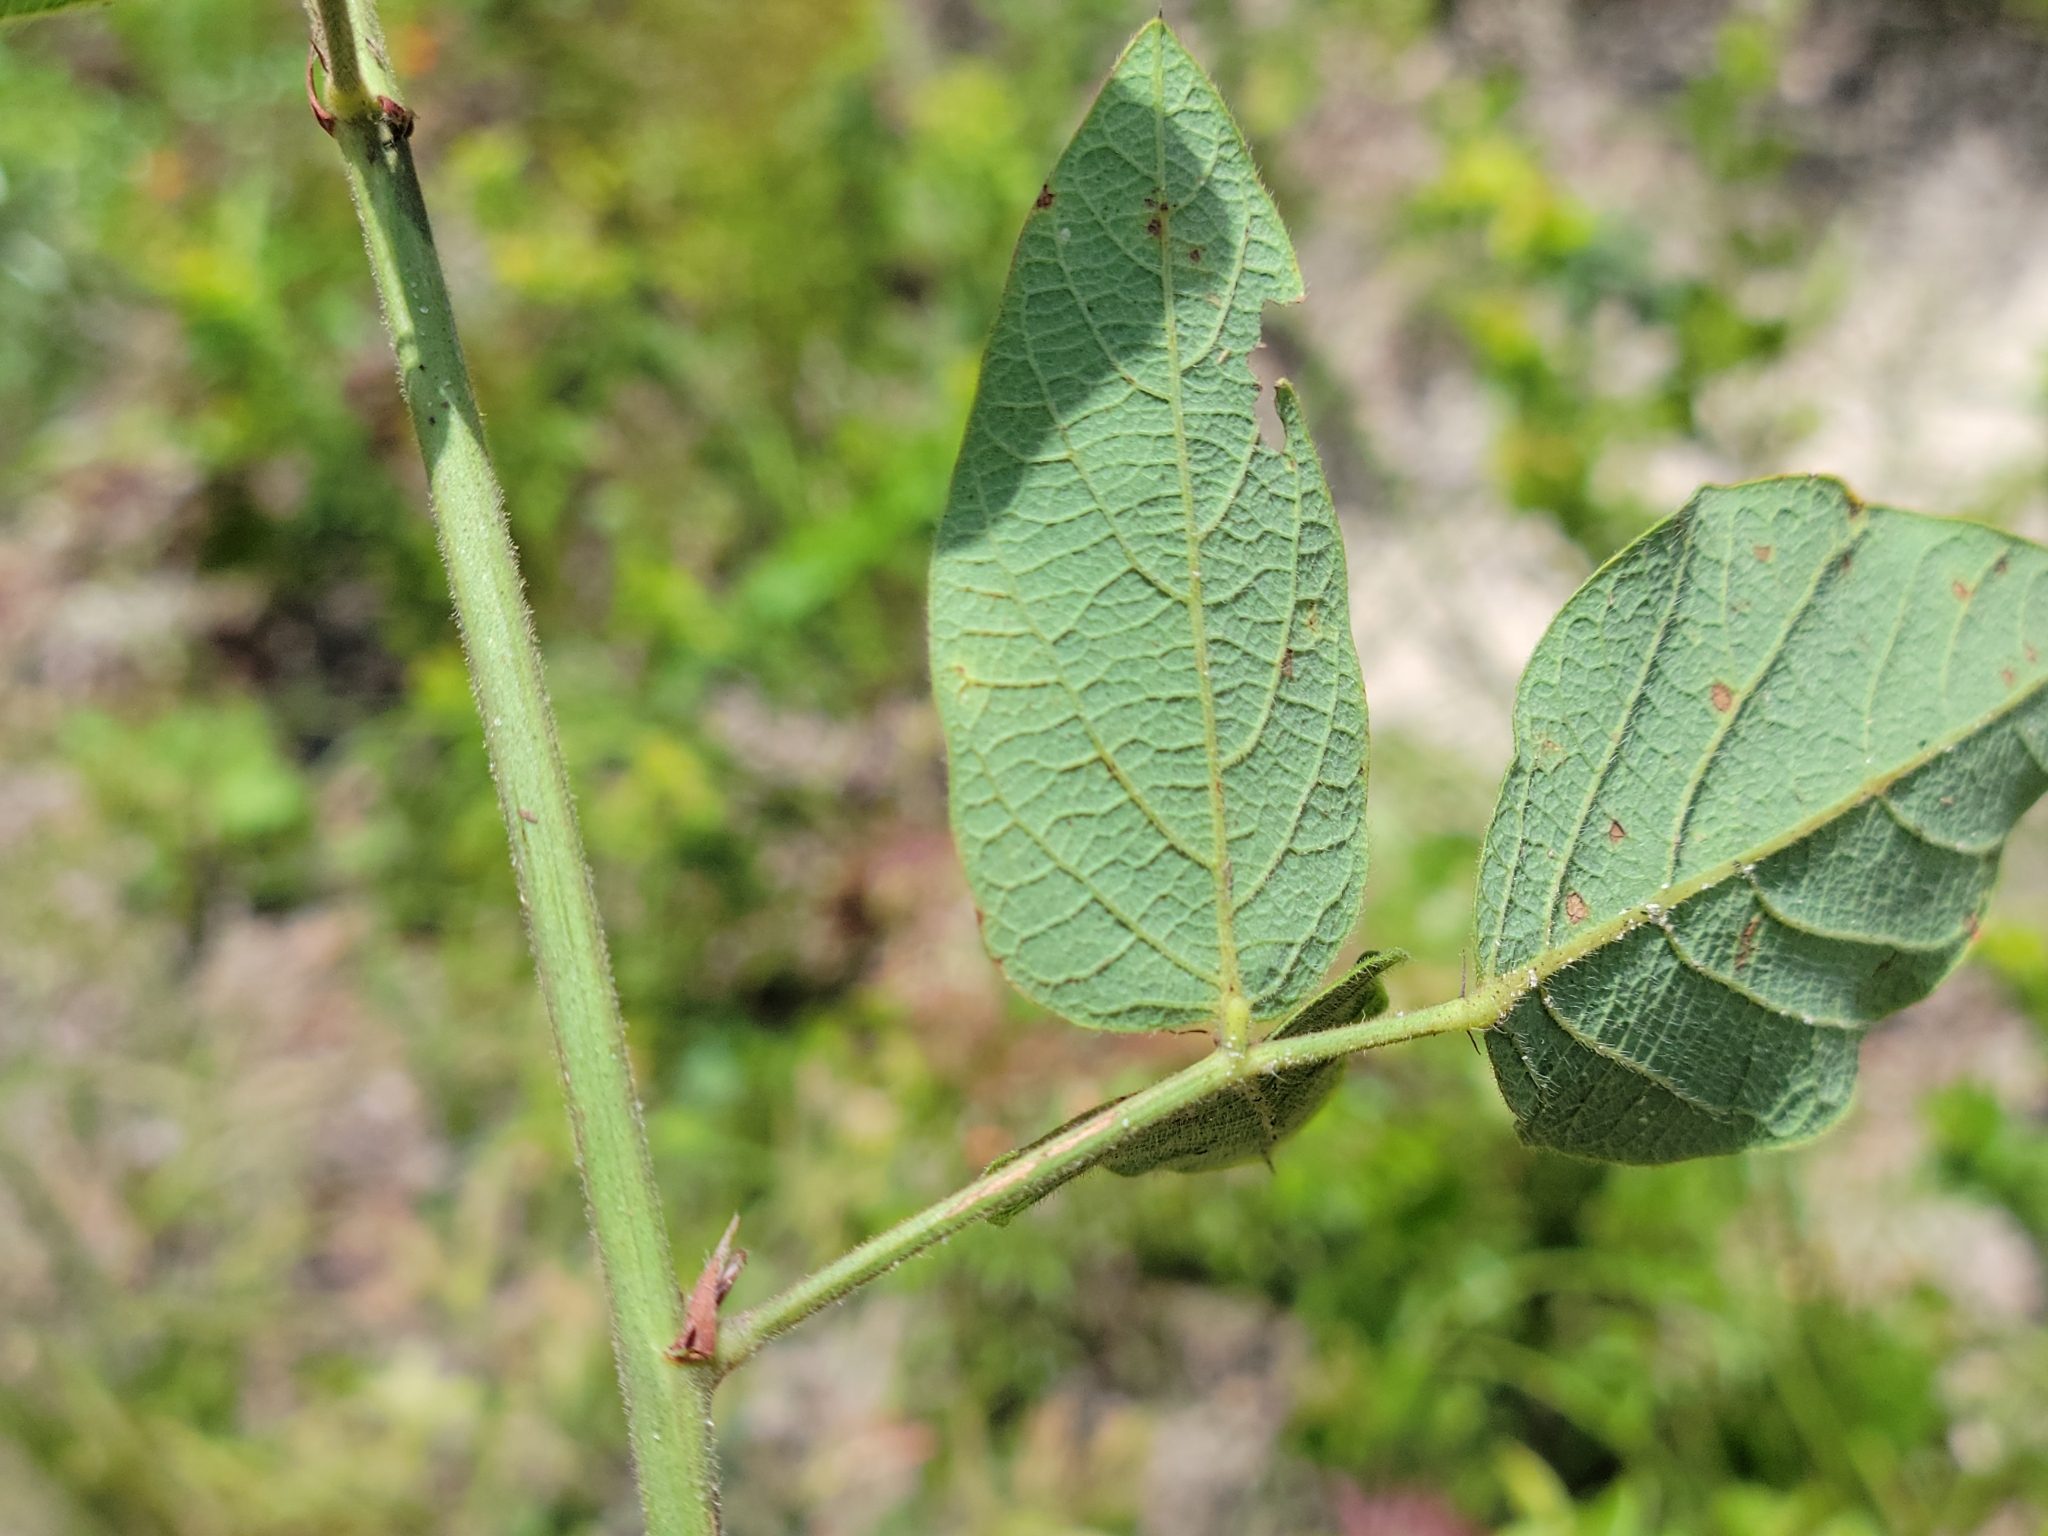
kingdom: Plantae
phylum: Tracheophyta
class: Magnoliopsida
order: Fabales
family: Fabaceae
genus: Desmodium
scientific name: Desmodium floridanum
